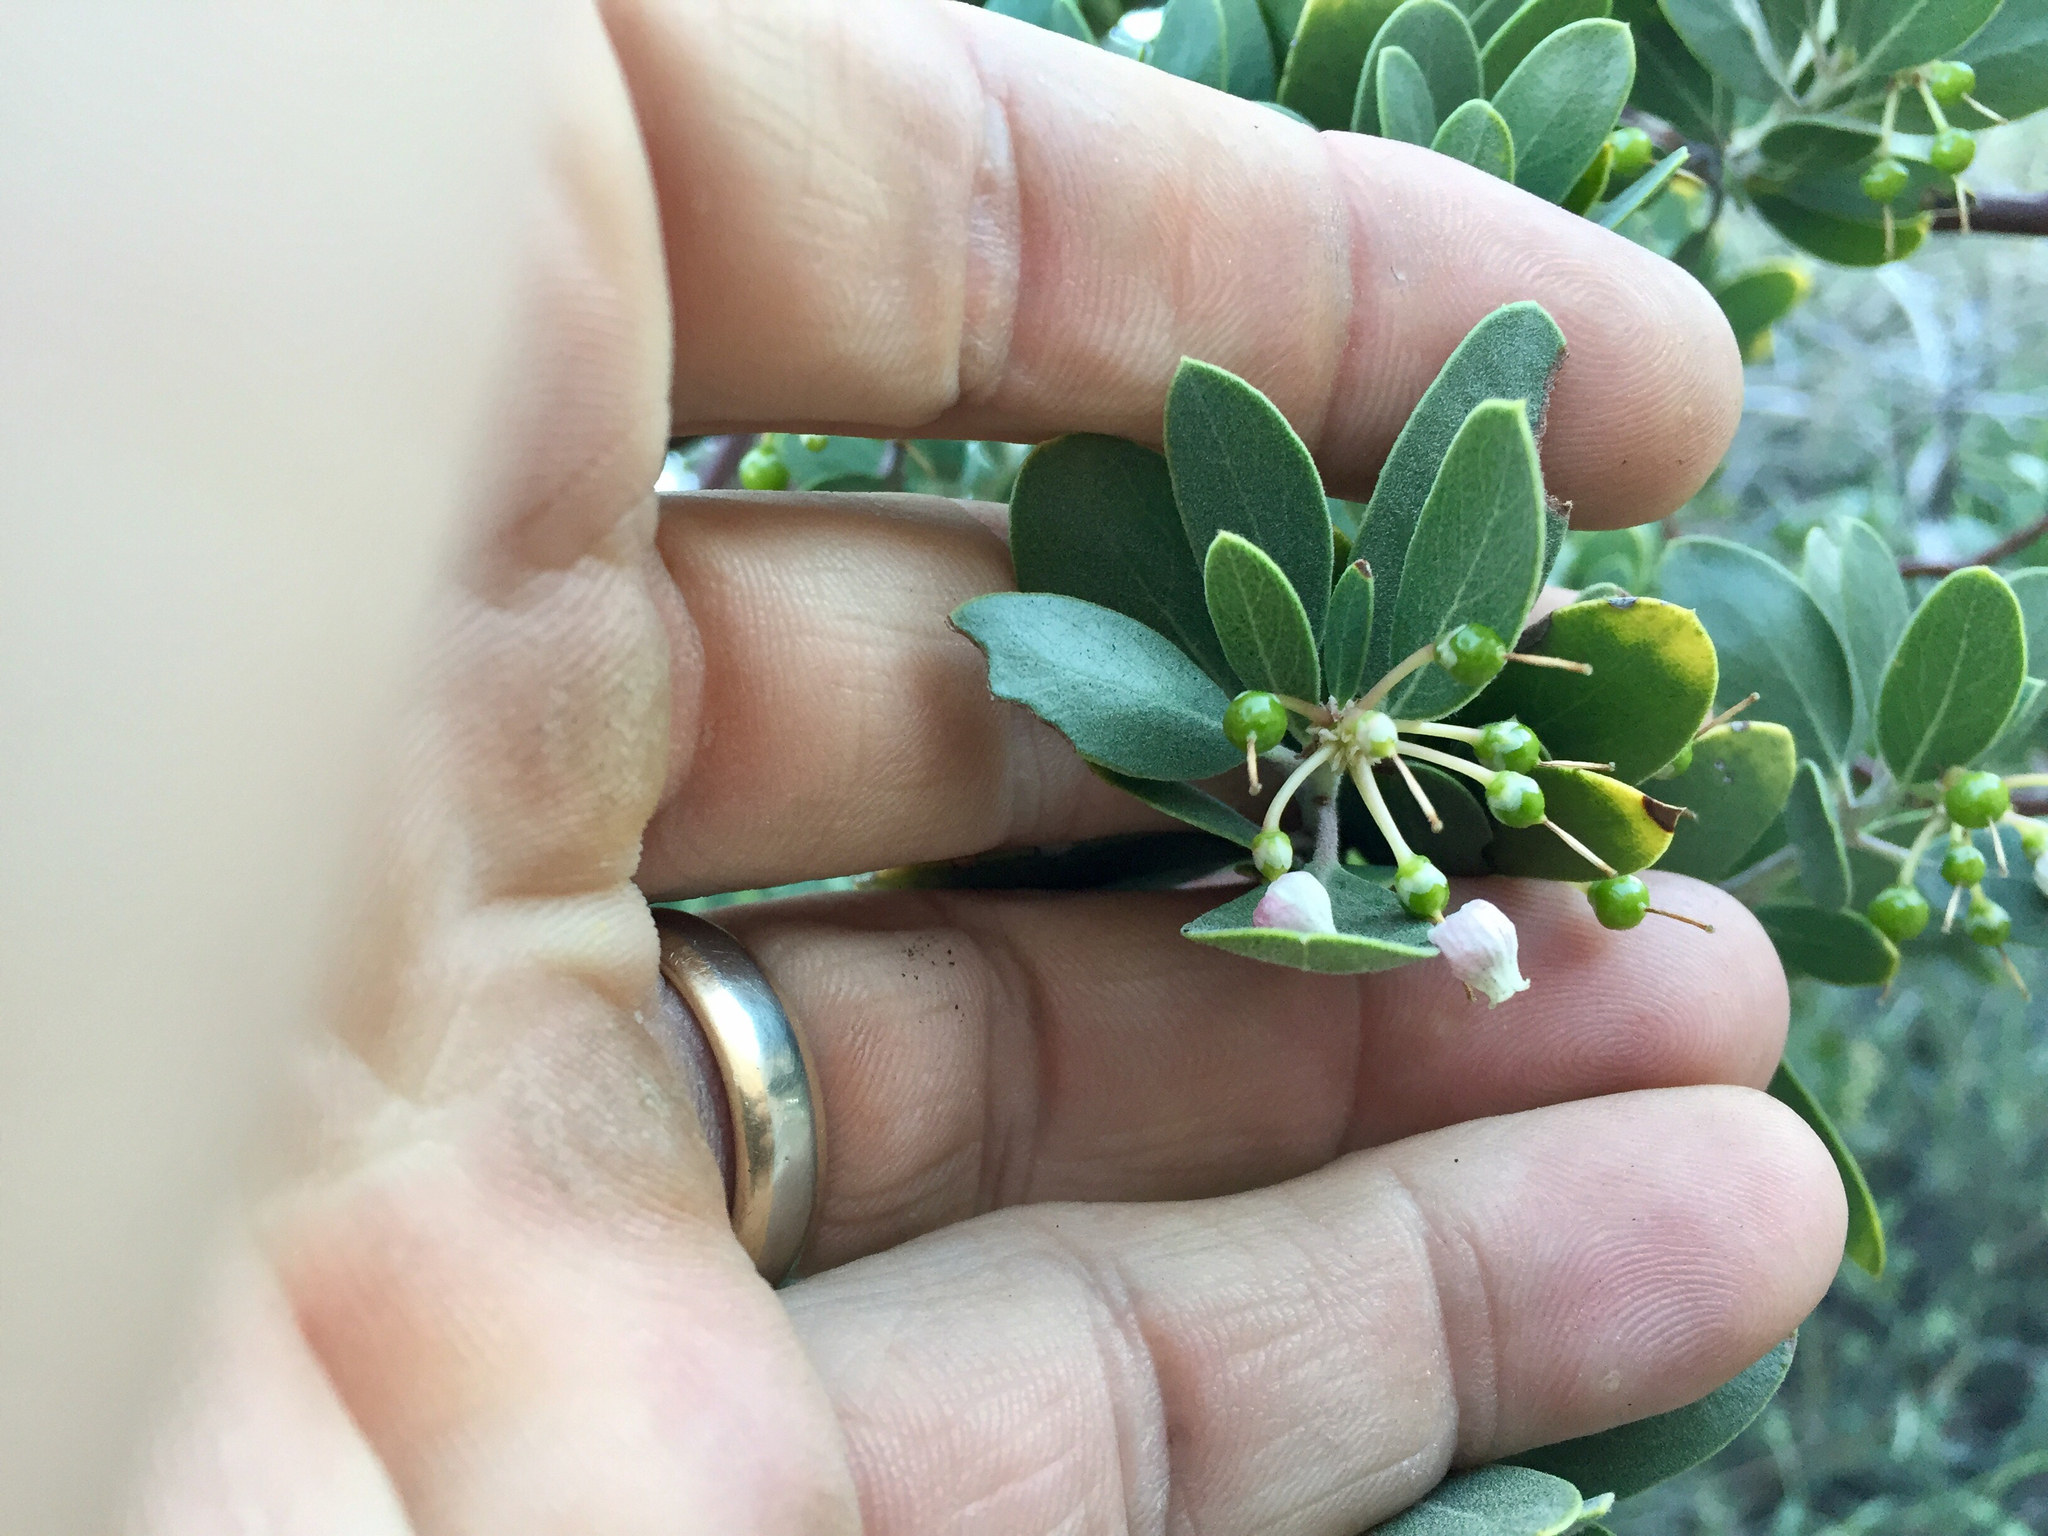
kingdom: Plantae
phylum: Tracheophyta
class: Magnoliopsida
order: Ericales
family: Ericaceae
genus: Arctostaphylos
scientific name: Arctostaphylos pungens
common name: Mexican manzanita
